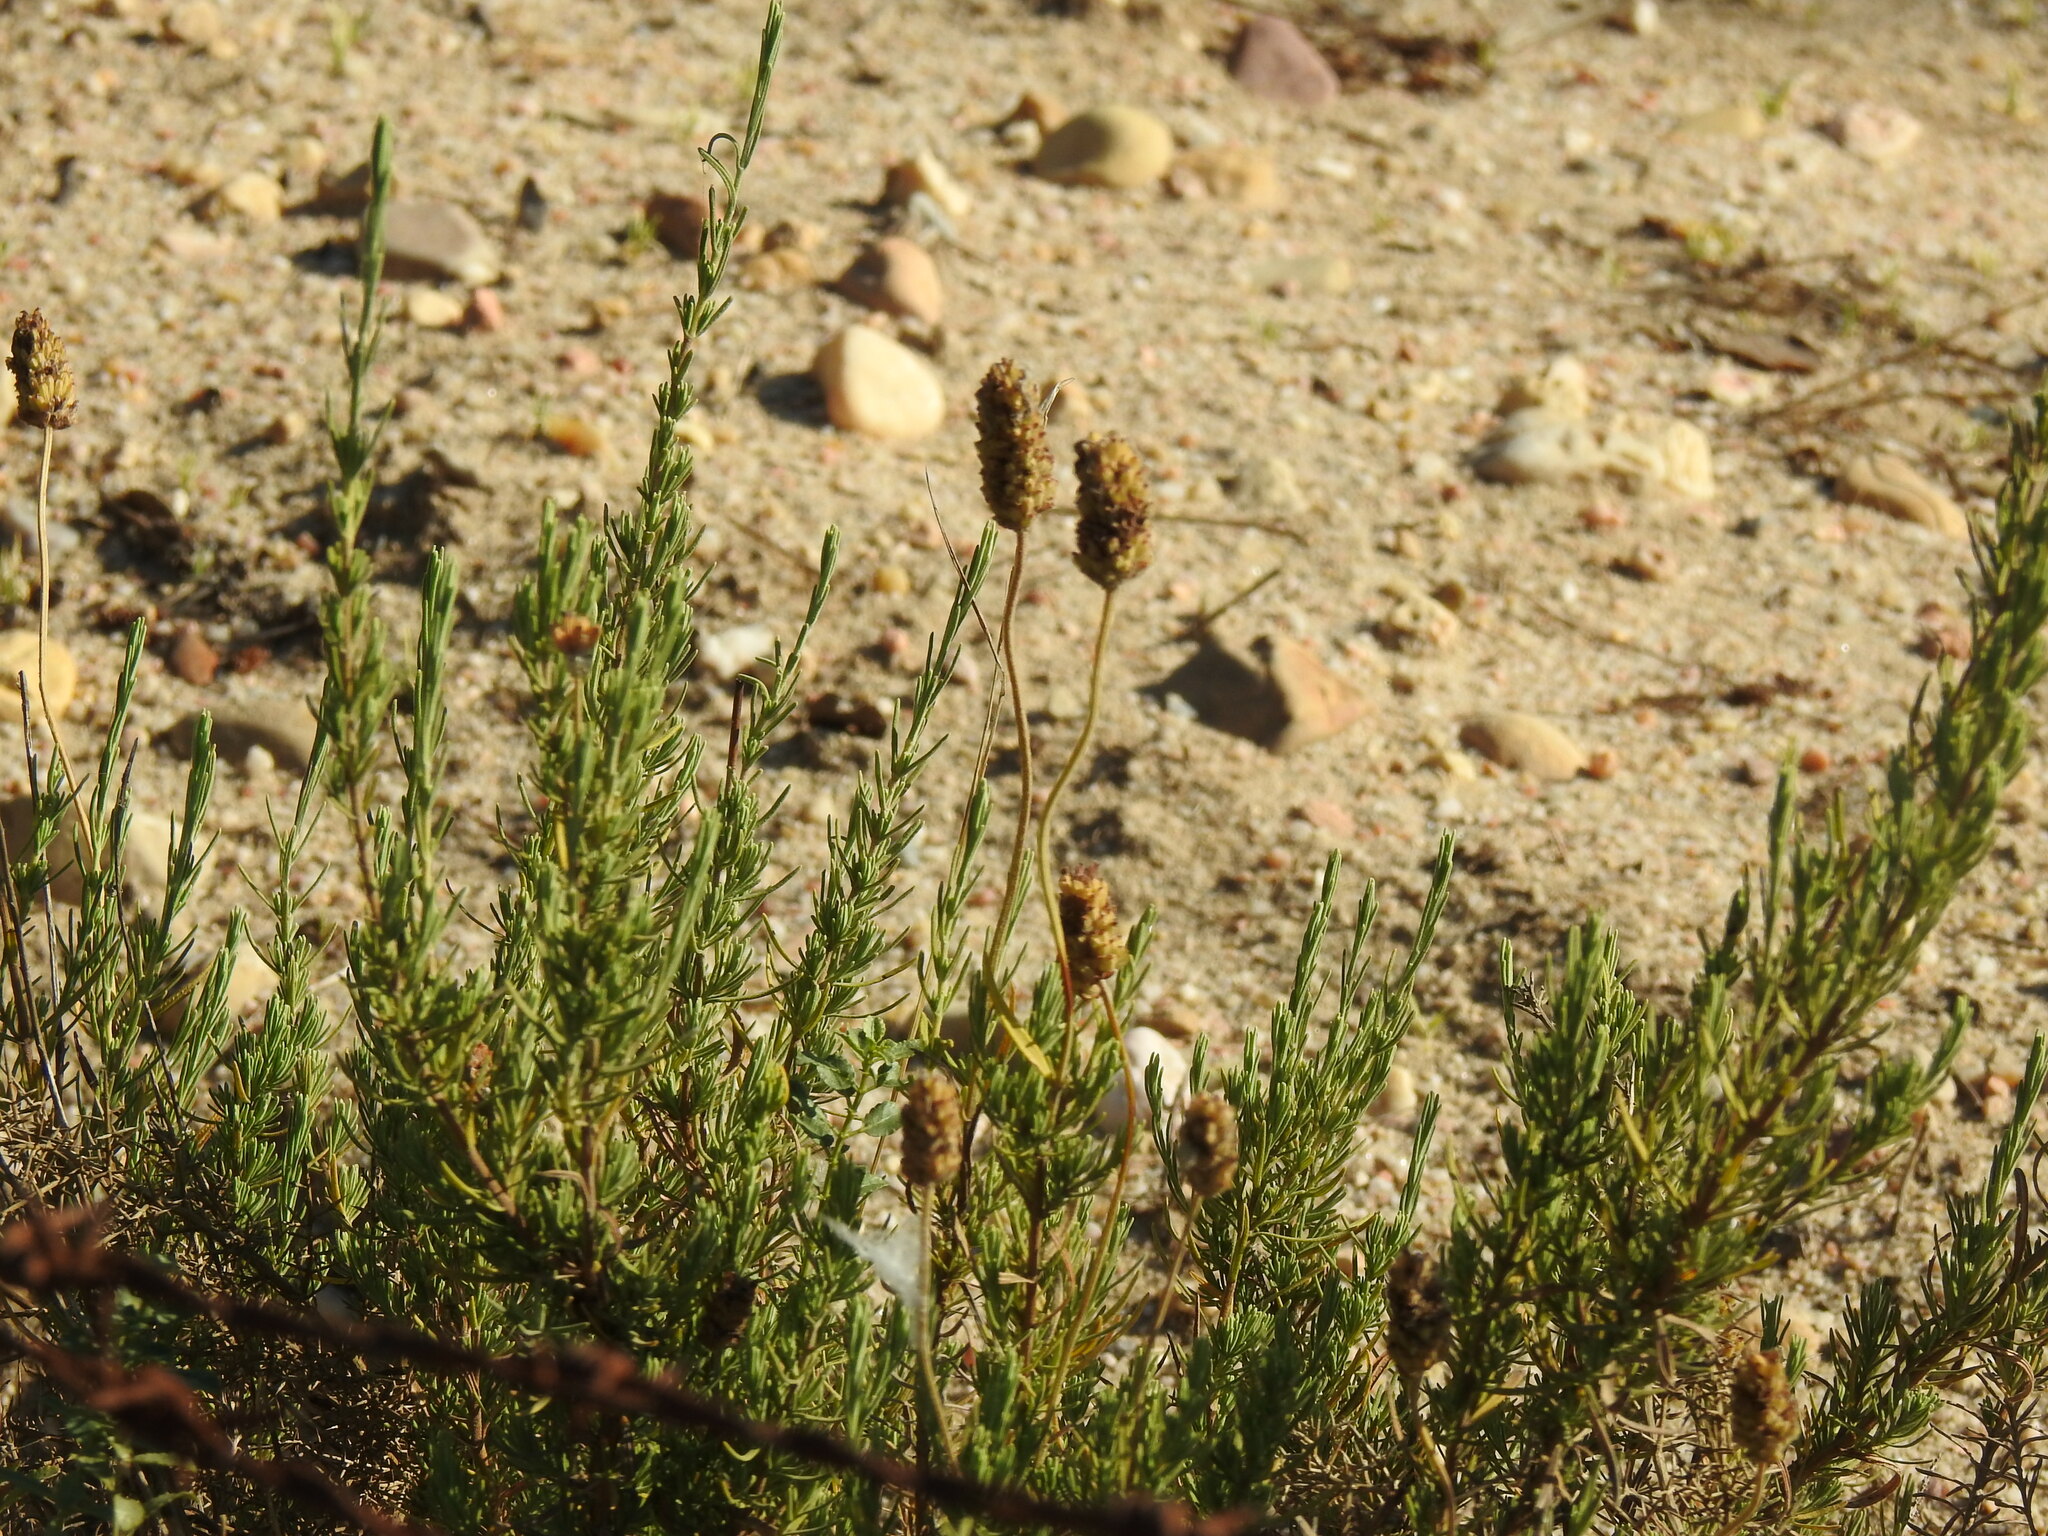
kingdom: Plantae
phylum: Tracheophyta
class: Magnoliopsida
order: Lamiales
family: Lamiaceae
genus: Lavandula
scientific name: Lavandula pedunculata
